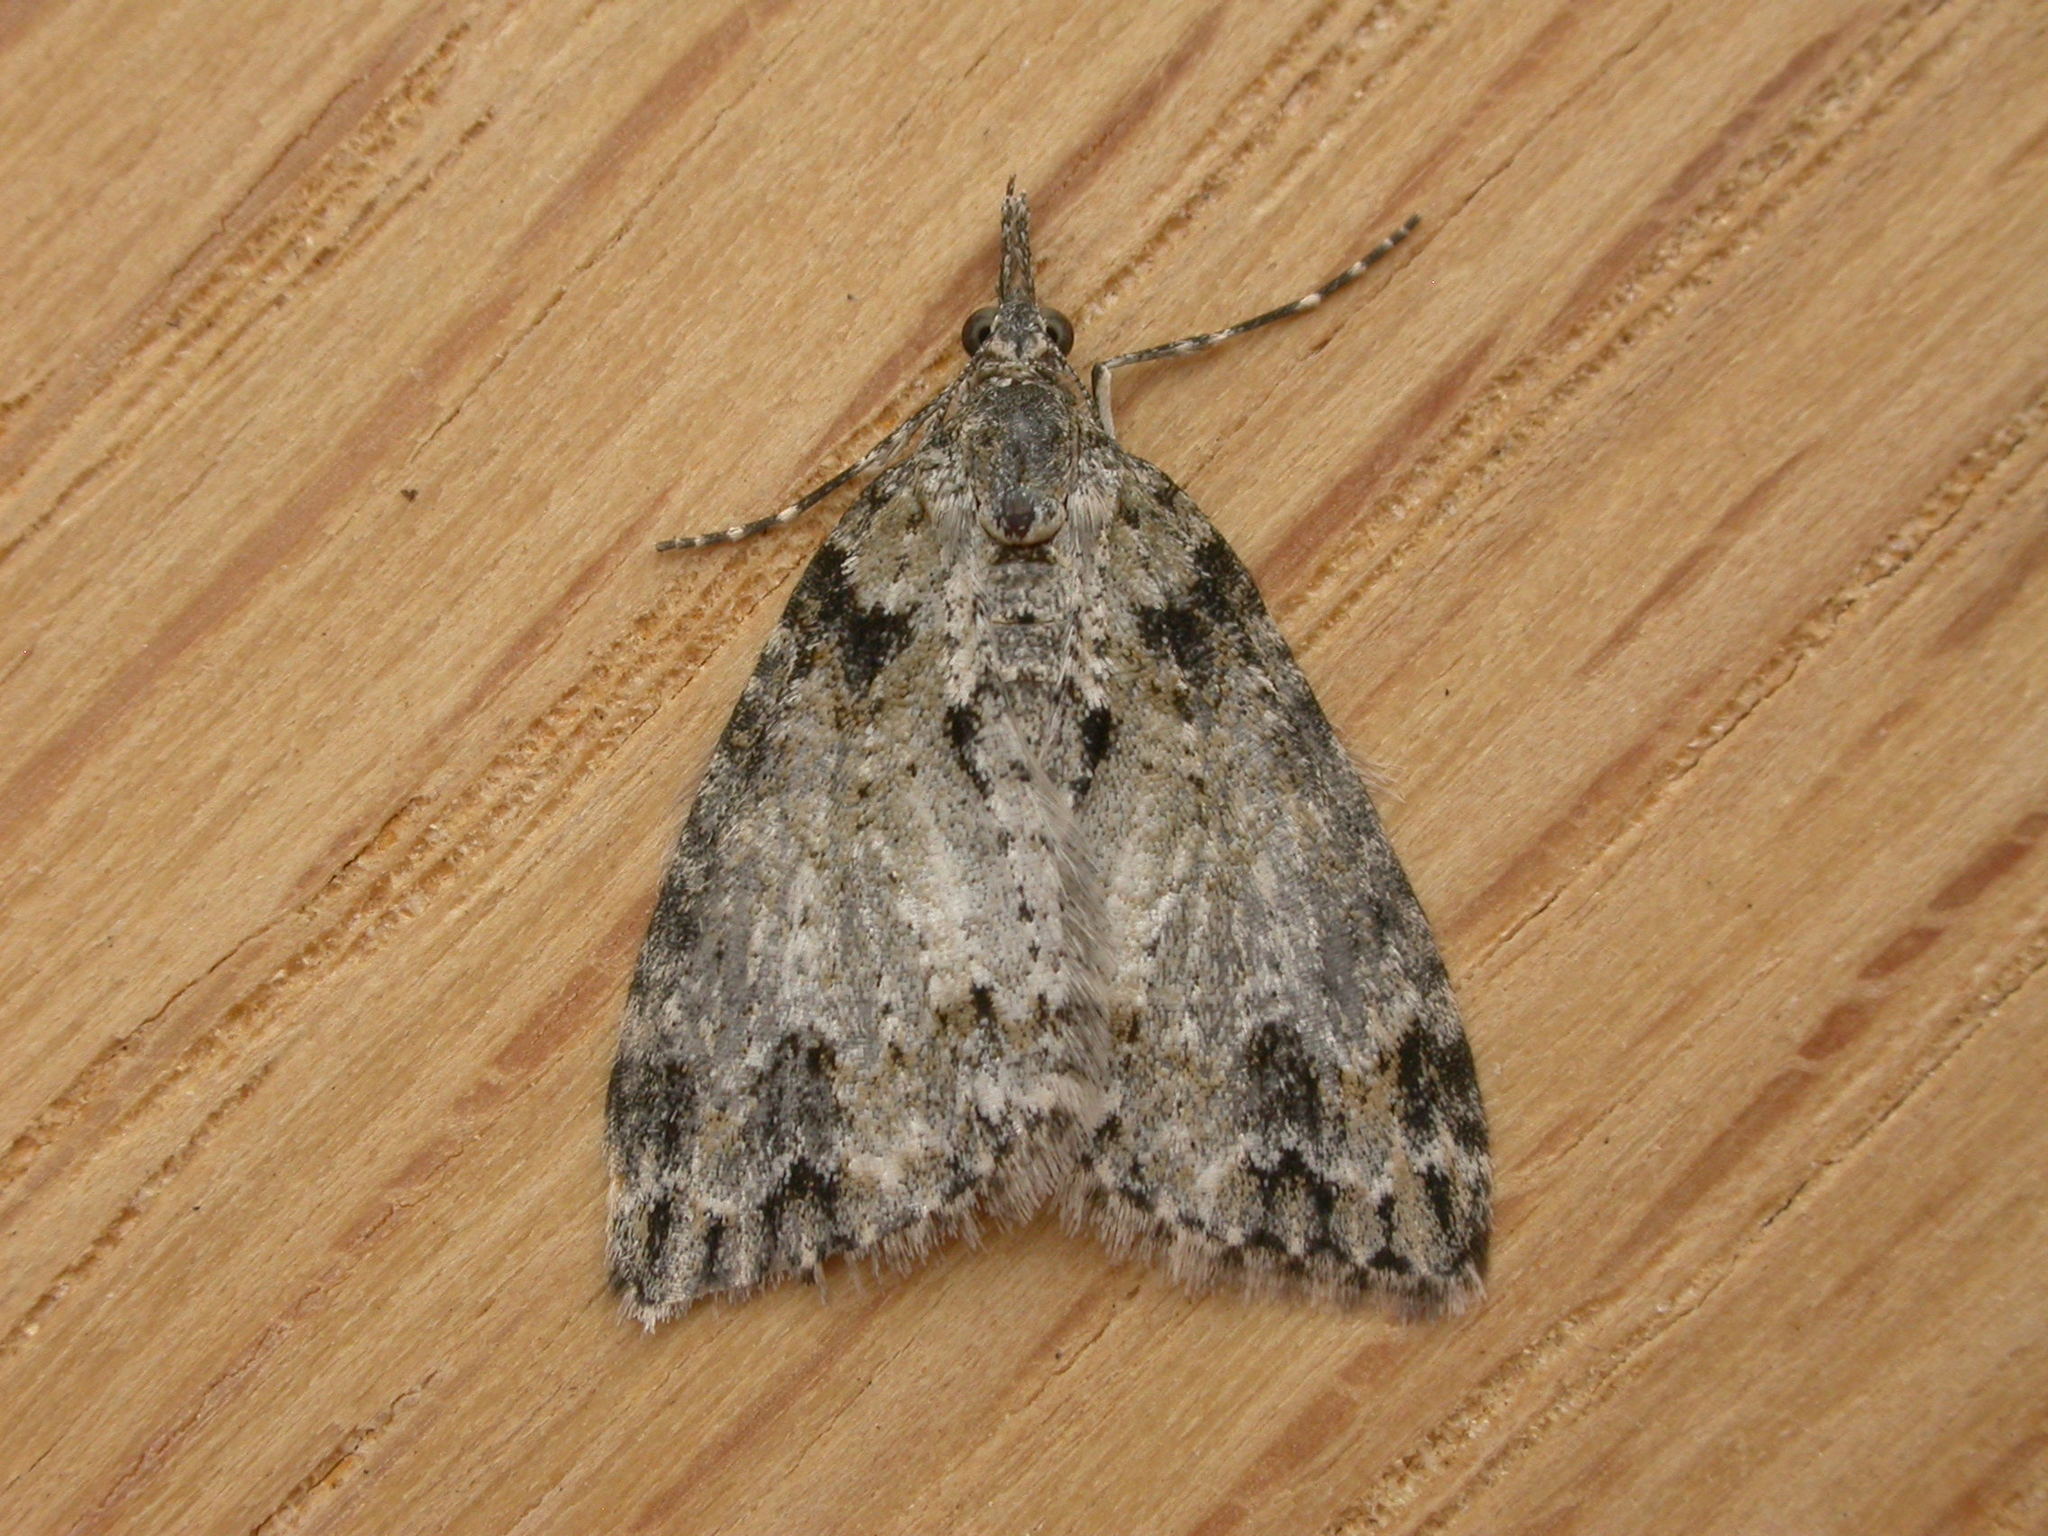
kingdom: Animalia
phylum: Arthropoda
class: Insecta
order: Lepidoptera
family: Geometridae
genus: Microdes
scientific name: Microdes villosata
